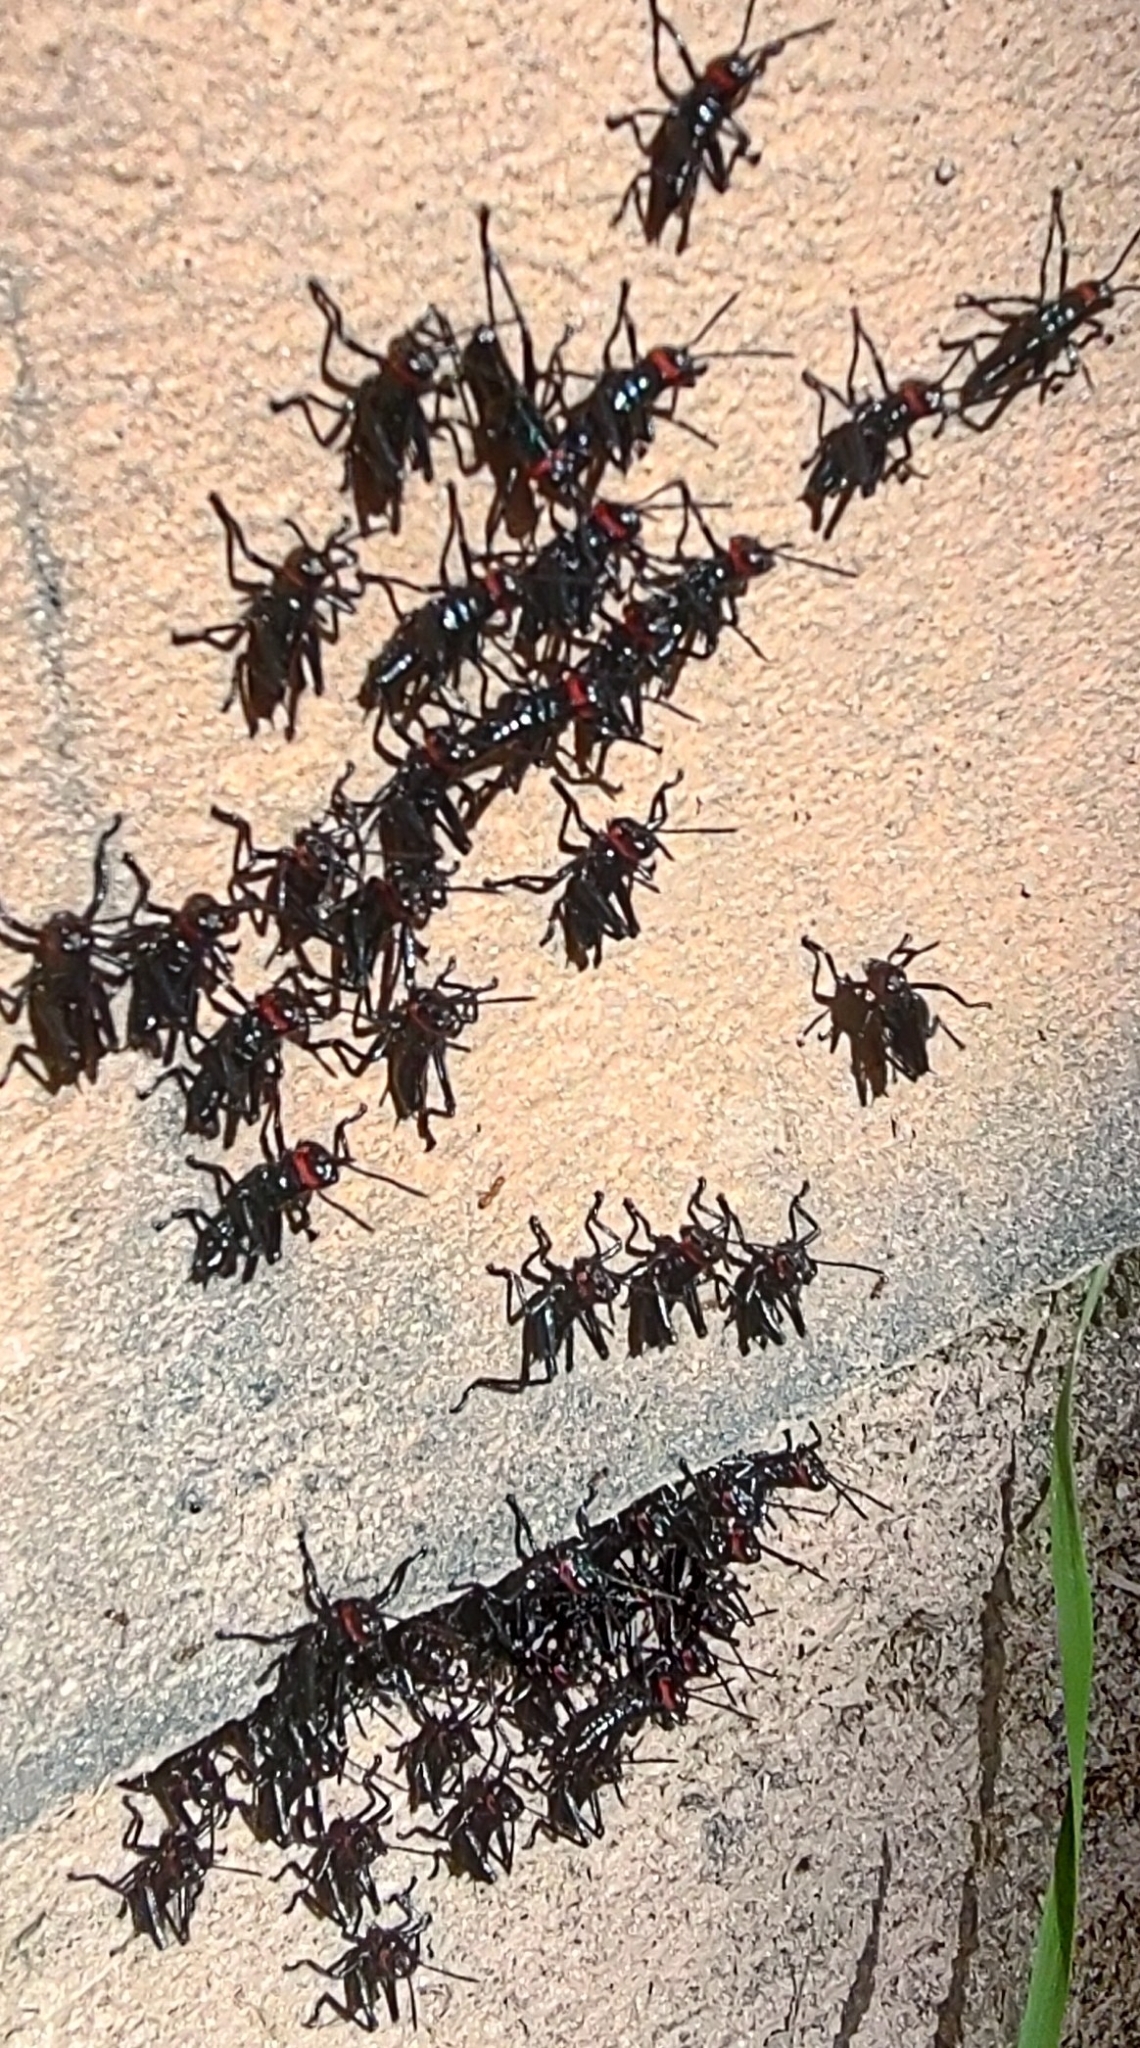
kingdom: Animalia
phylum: Arthropoda
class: Insecta
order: Orthoptera
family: Romaleidae
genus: Chromacris
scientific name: Chromacris speciosa
